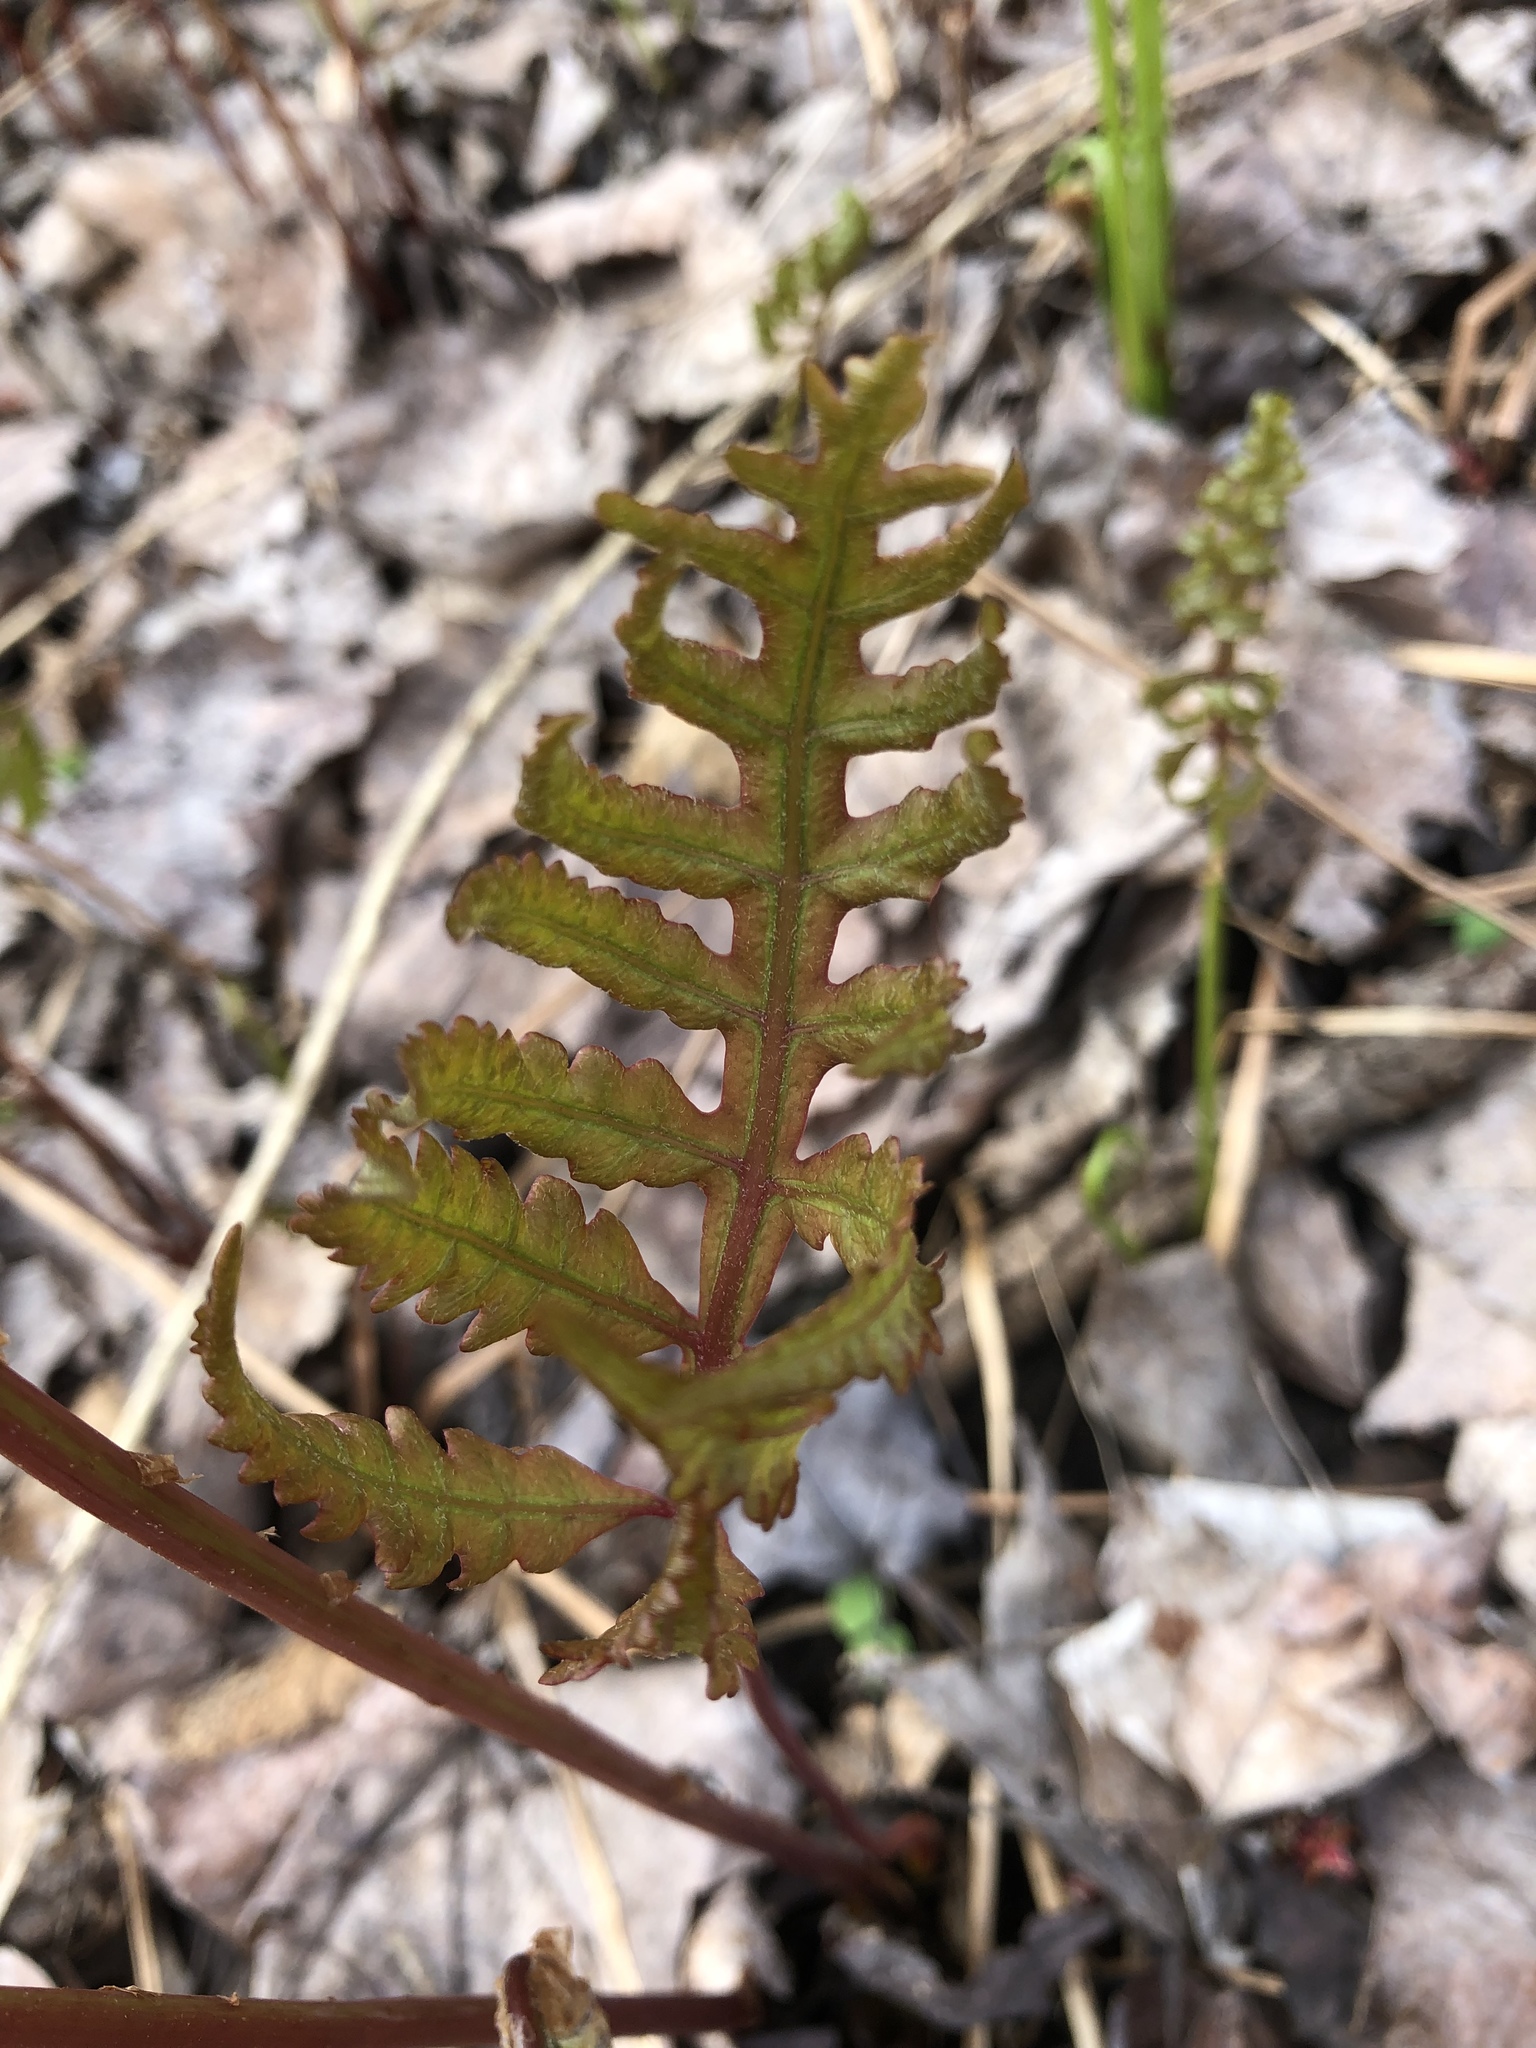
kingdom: Plantae
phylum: Tracheophyta
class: Polypodiopsida
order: Polypodiales
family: Onocleaceae
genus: Onoclea
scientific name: Onoclea sensibilis
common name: Sensitive fern
